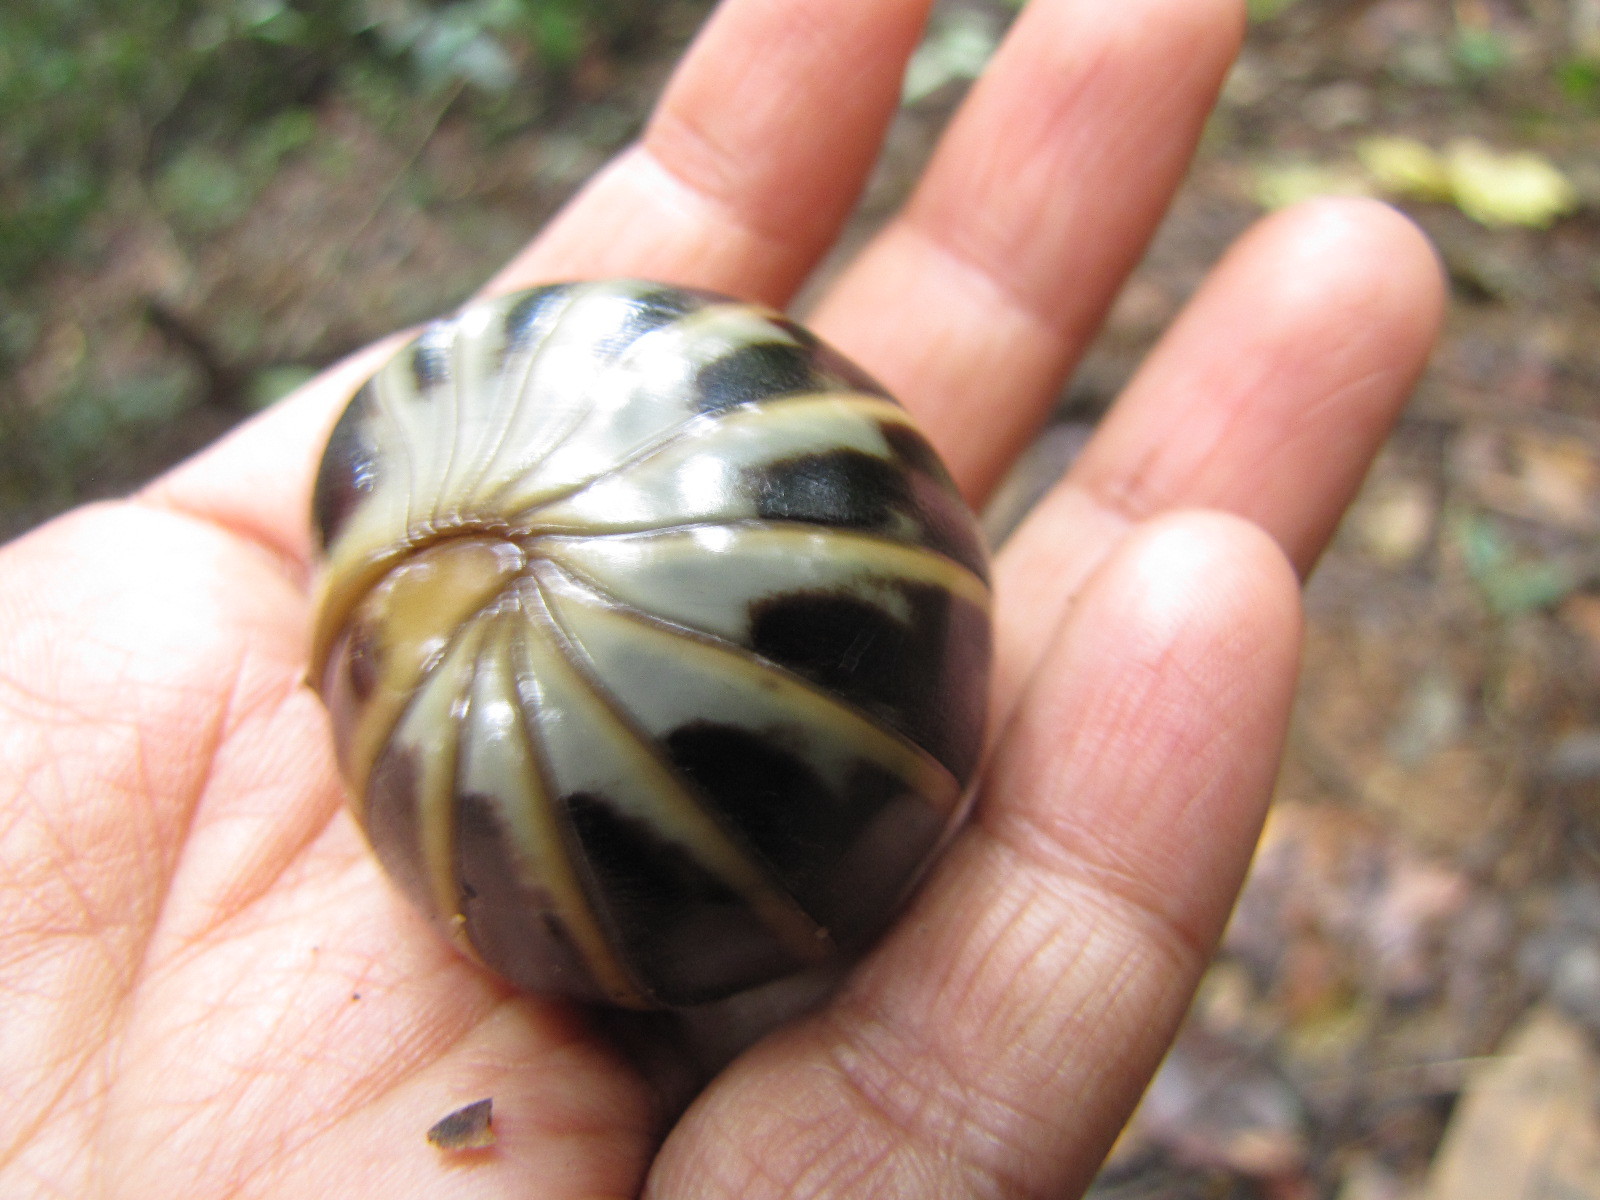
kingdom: Animalia
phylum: Arthropoda
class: Diplopoda
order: Sphaerotheriida
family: Arthrosphaeridae
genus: Arthrosphaera
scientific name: Arthrosphaera fumosa
